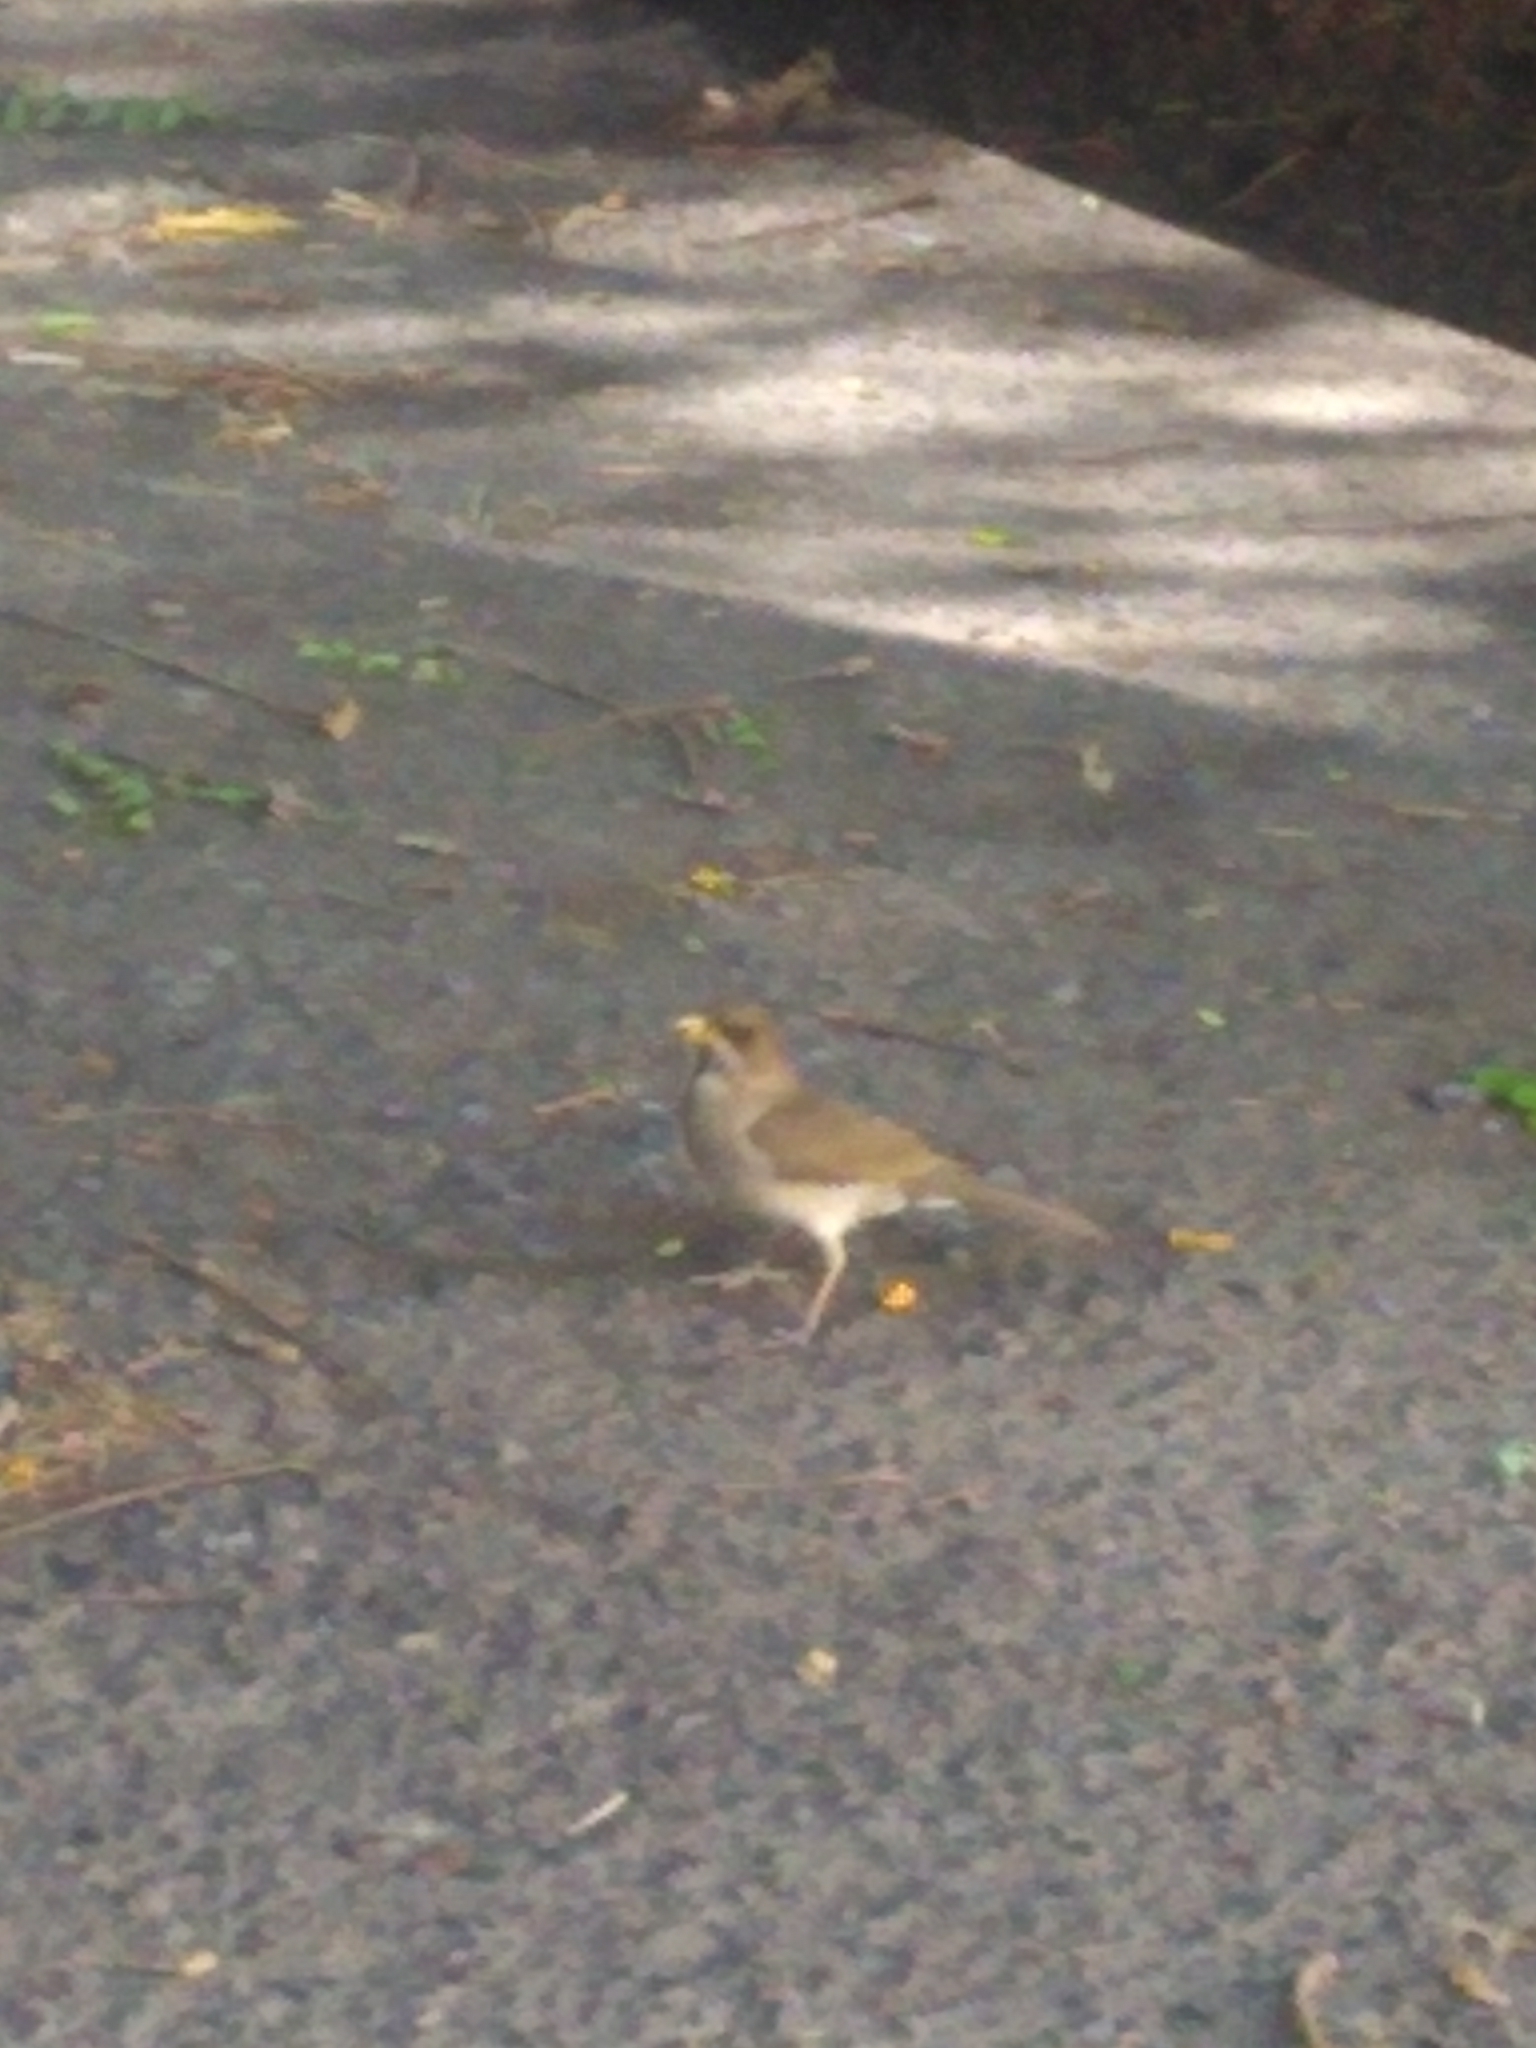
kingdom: Animalia
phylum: Chordata
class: Aves
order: Passeriformes
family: Turdidae
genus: Turdus
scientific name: Turdus amaurochalinus
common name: Creamy-bellied thrush
